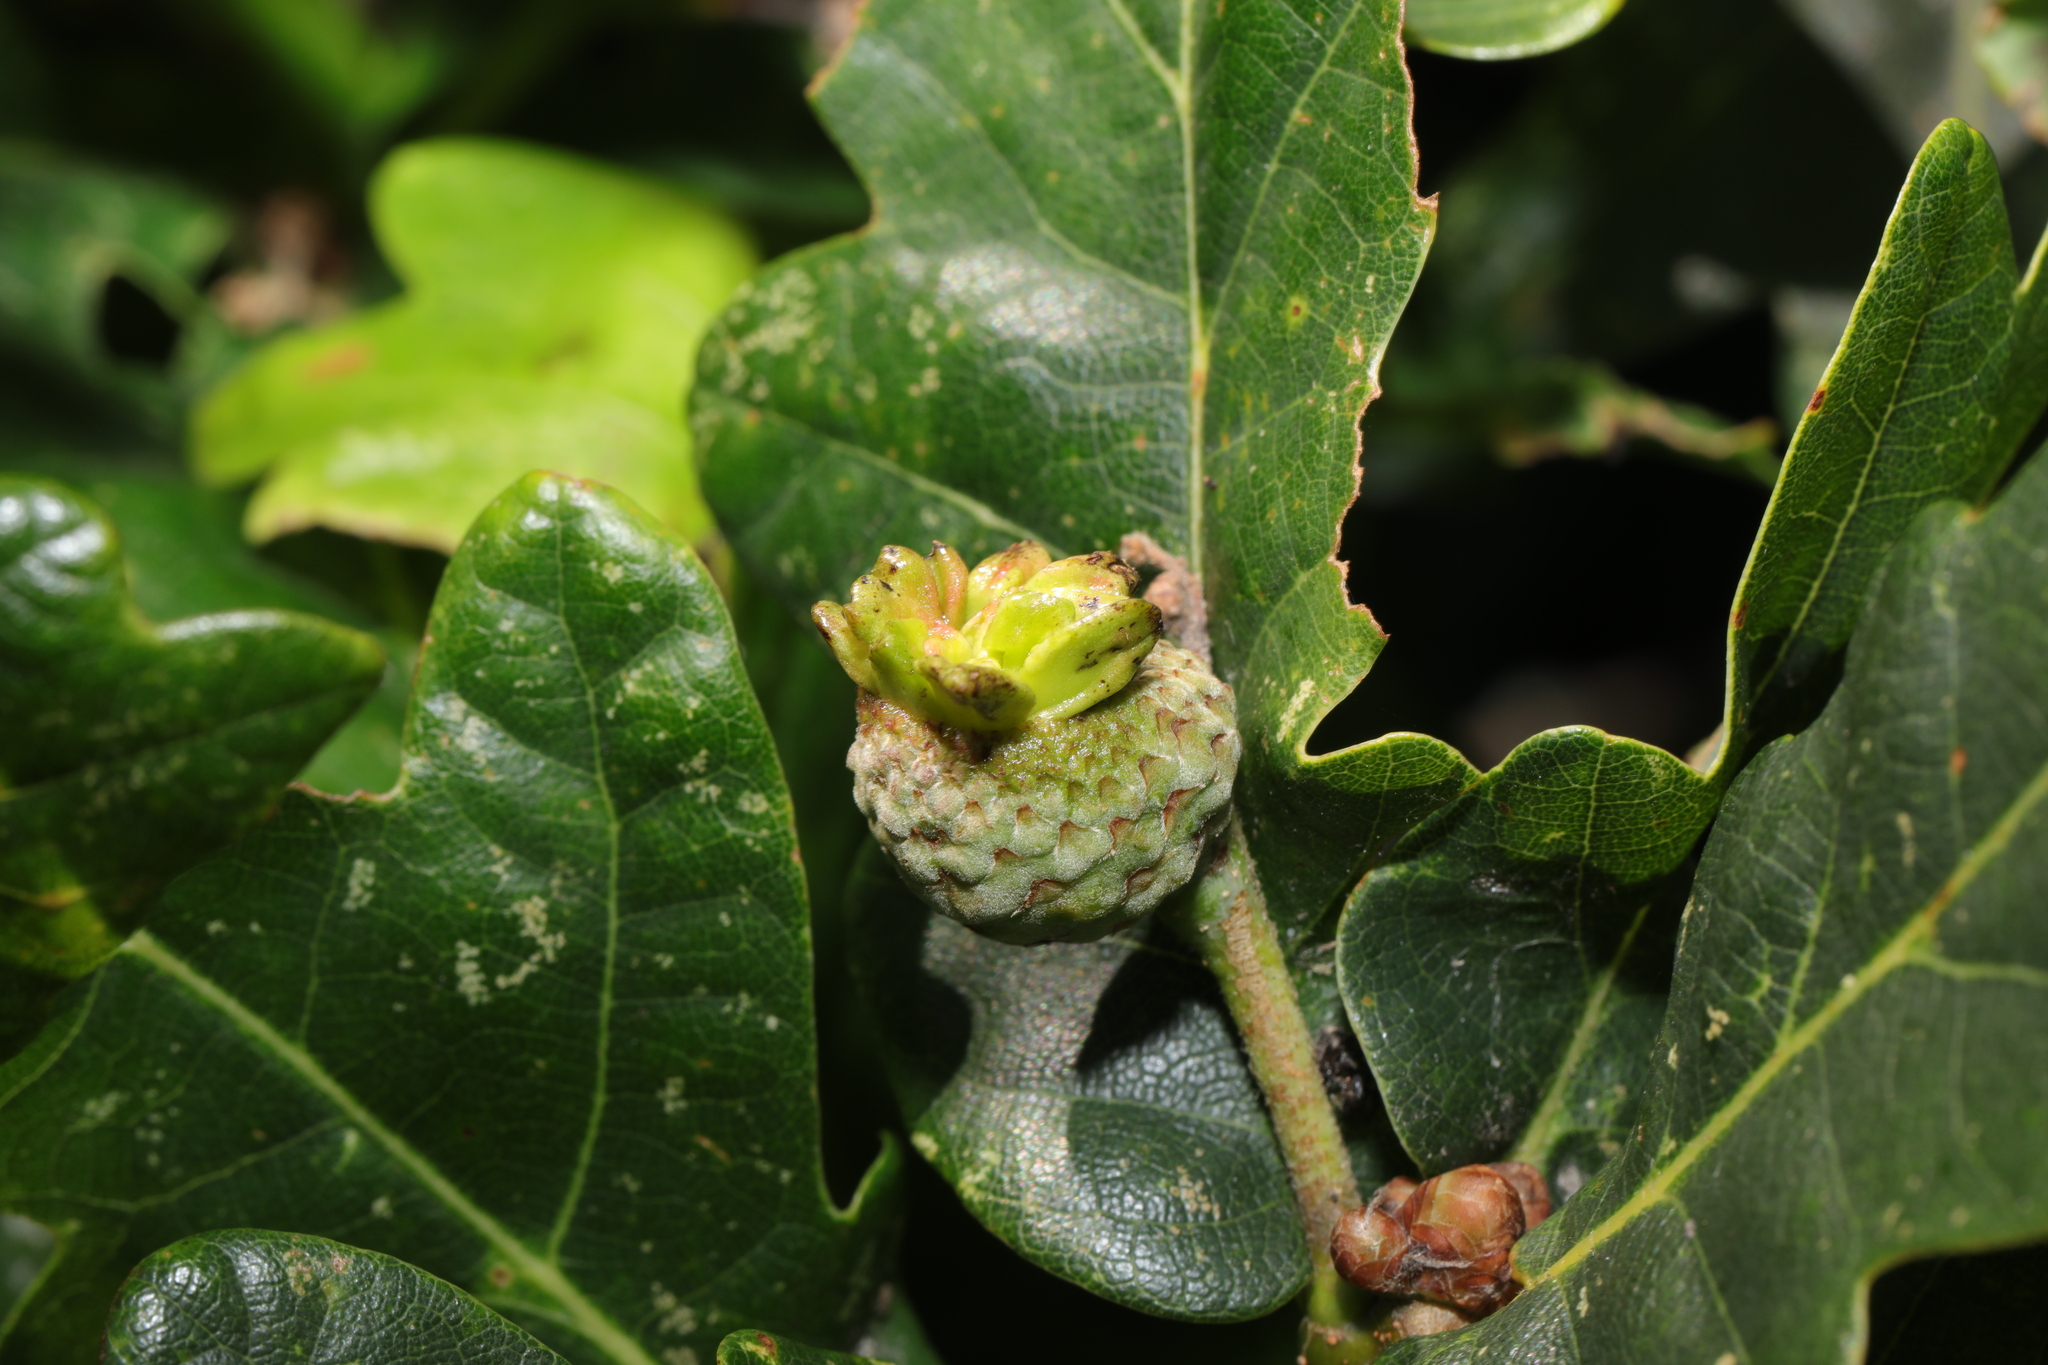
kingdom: Animalia
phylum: Arthropoda
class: Insecta
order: Hymenoptera
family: Cynipidae
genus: Andricus
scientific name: Andricus quercuscalicis
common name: Knopper gall
